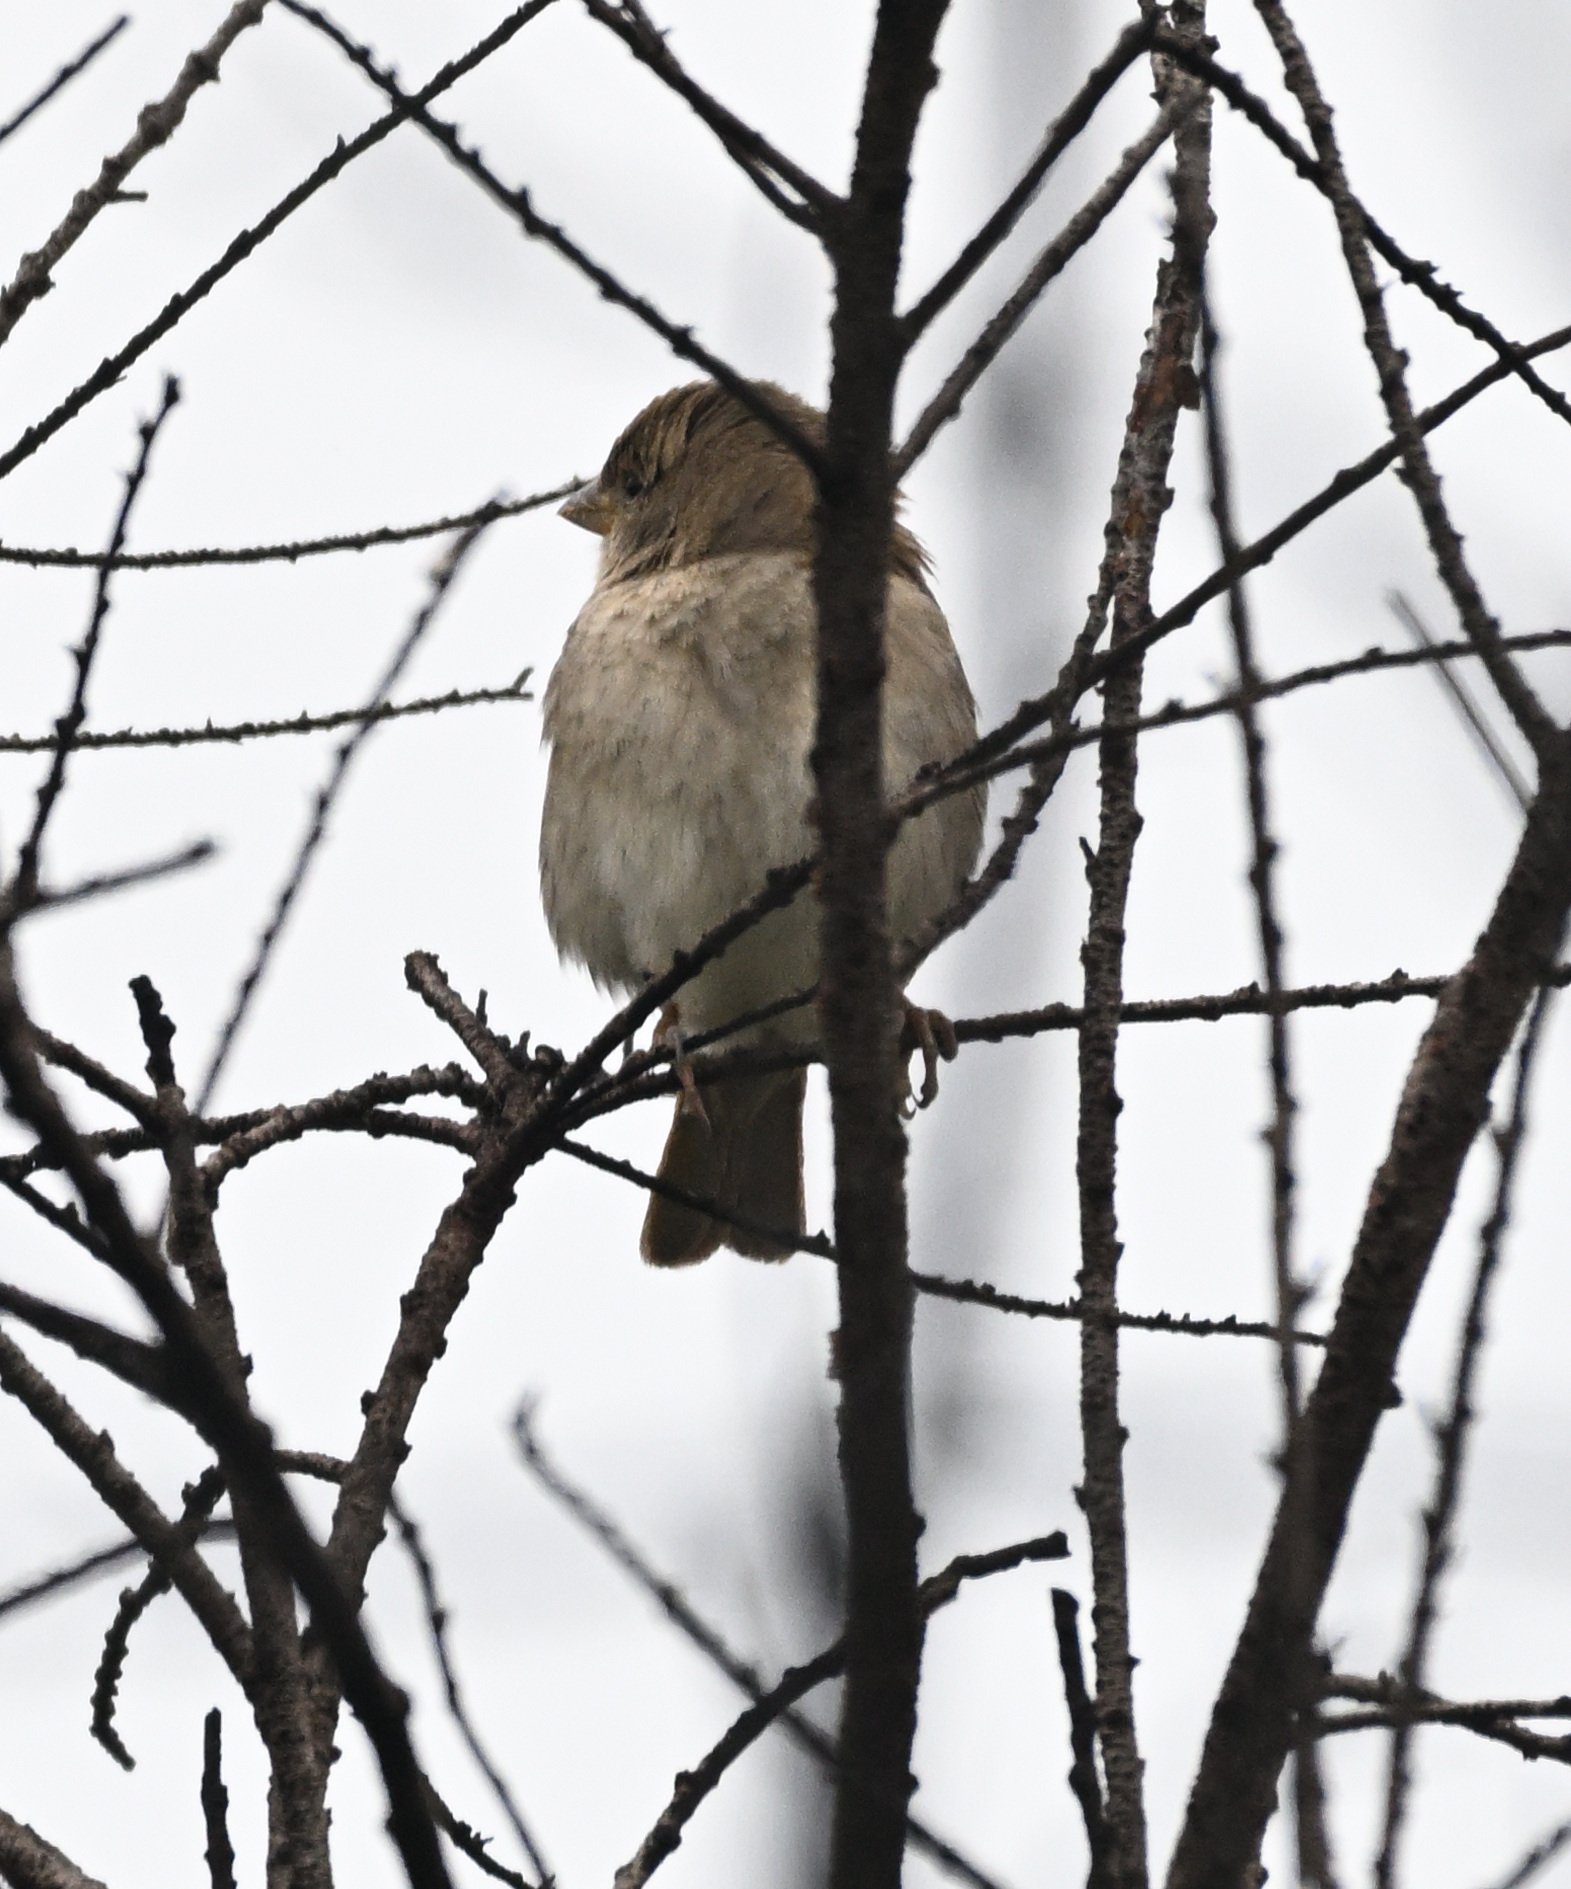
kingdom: Animalia
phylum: Chordata
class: Aves
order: Passeriformes
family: Passeridae
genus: Passer
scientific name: Passer domesticus
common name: House sparrow
